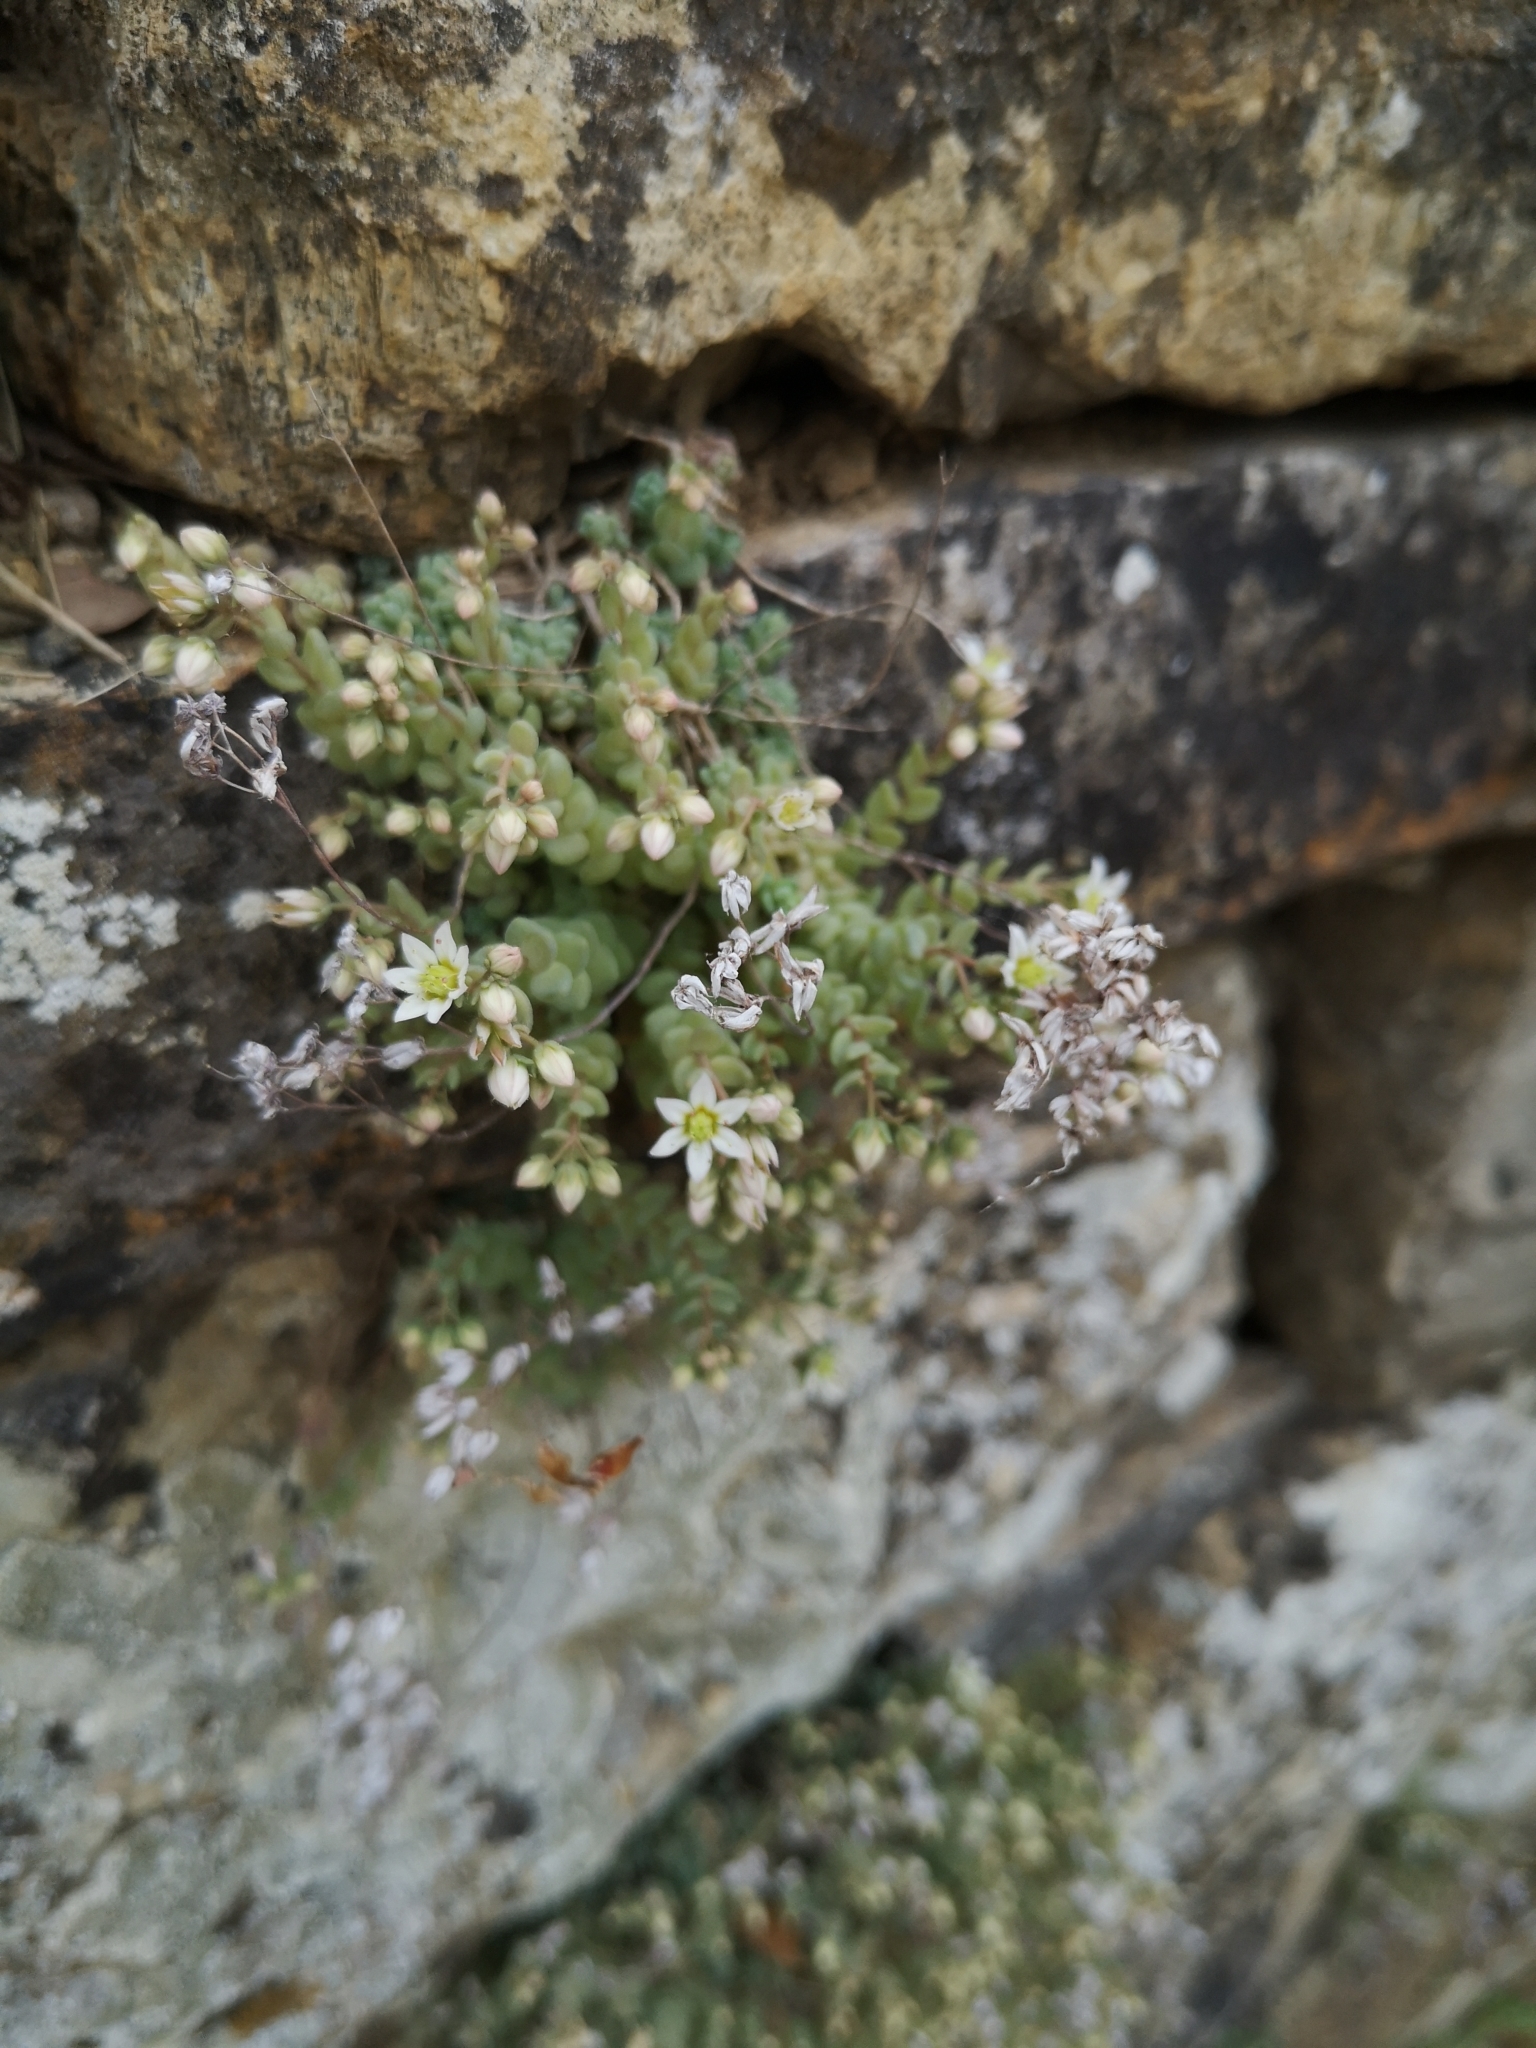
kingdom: Plantae
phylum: Tracheophyta
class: Magnoliopsida
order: Saxifragales
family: Crassulaceae
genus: Sedum
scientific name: Sedum dasyphyllum
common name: Thick-leaf stonecrop
